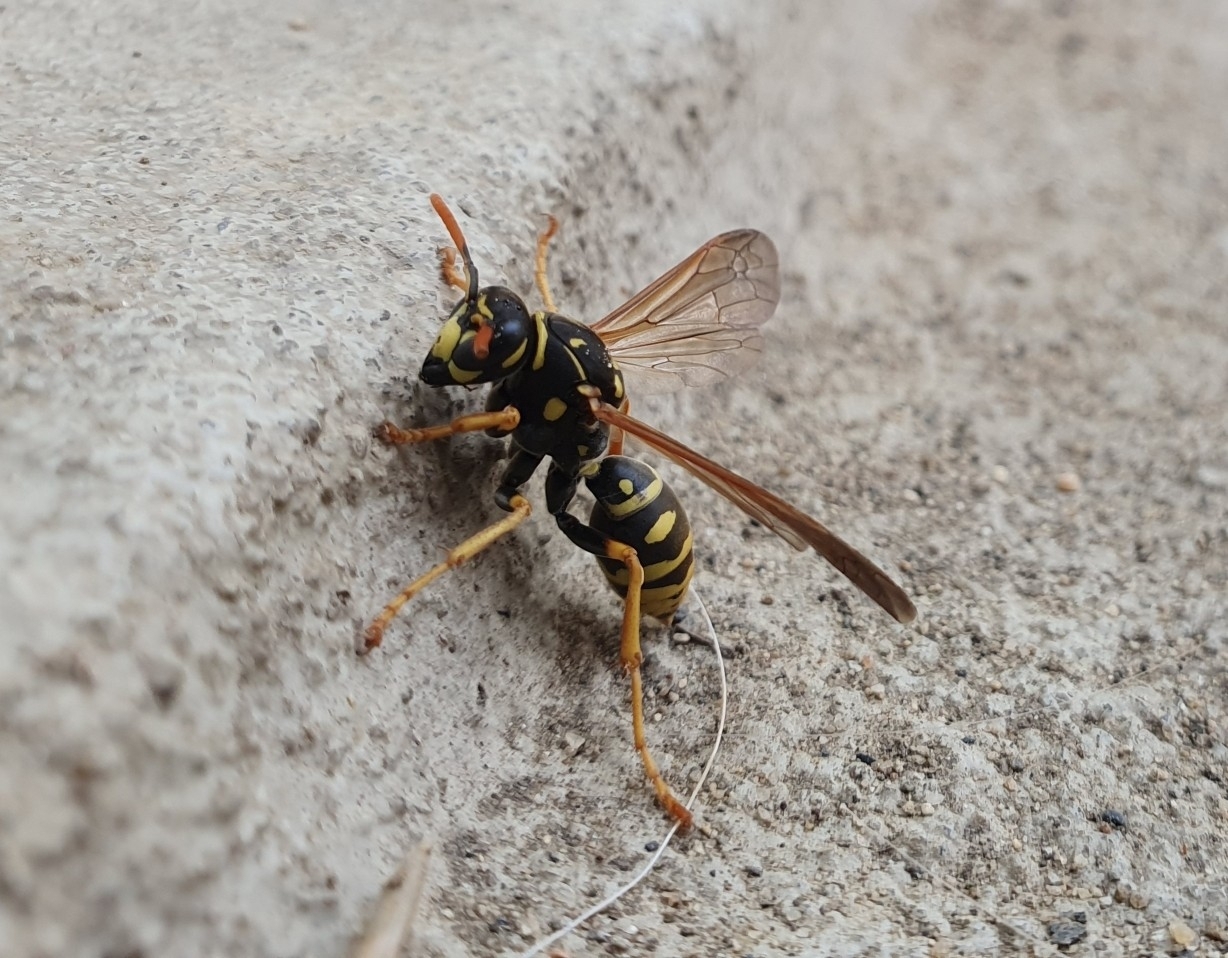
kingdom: Animalia
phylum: Arthropoda
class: Insecta
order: Hymenoptera
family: Eumenidae
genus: Polistes
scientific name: Polistes dominula
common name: Paper wasp
